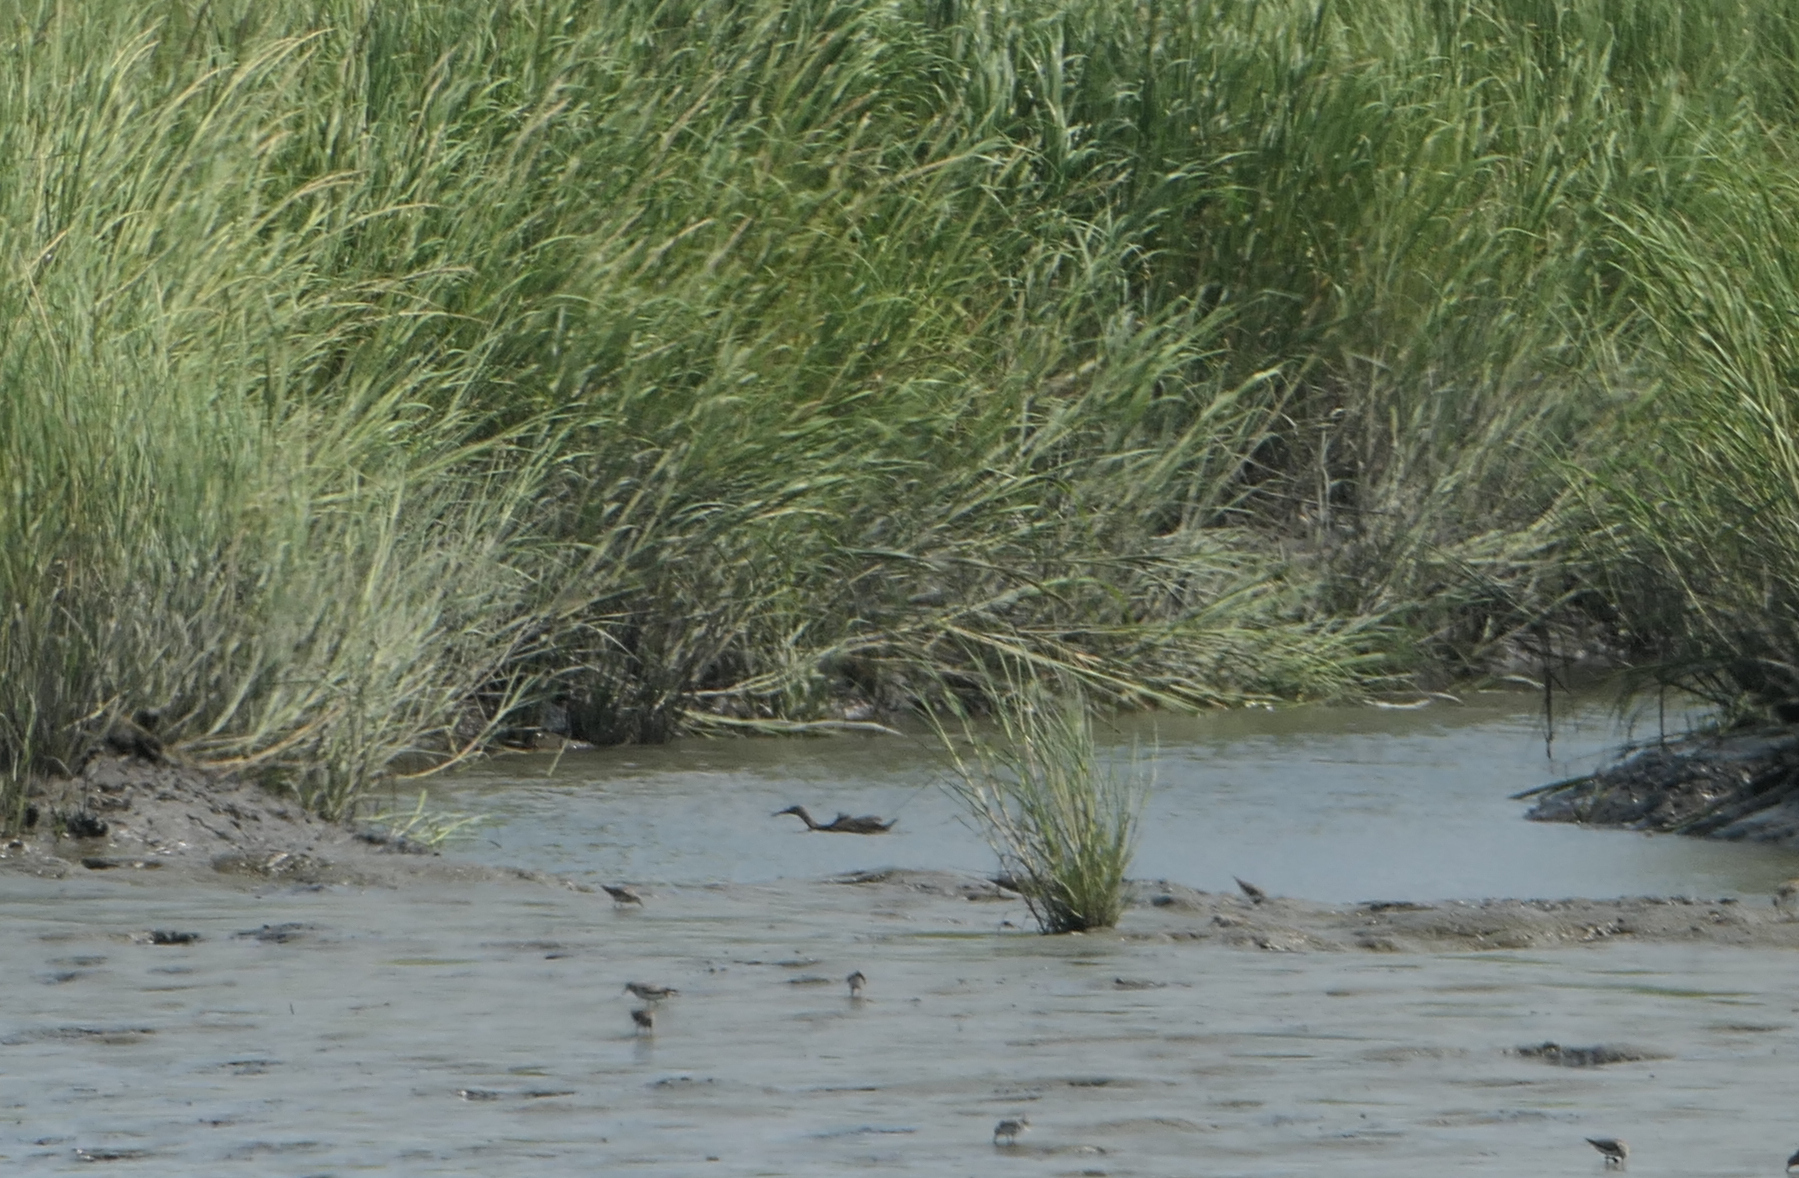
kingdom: Animalia
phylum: Chordata
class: Aves
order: Gruiformes
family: Rallidae
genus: Rallus
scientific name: Rallus crepitans
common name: Clapper rail
